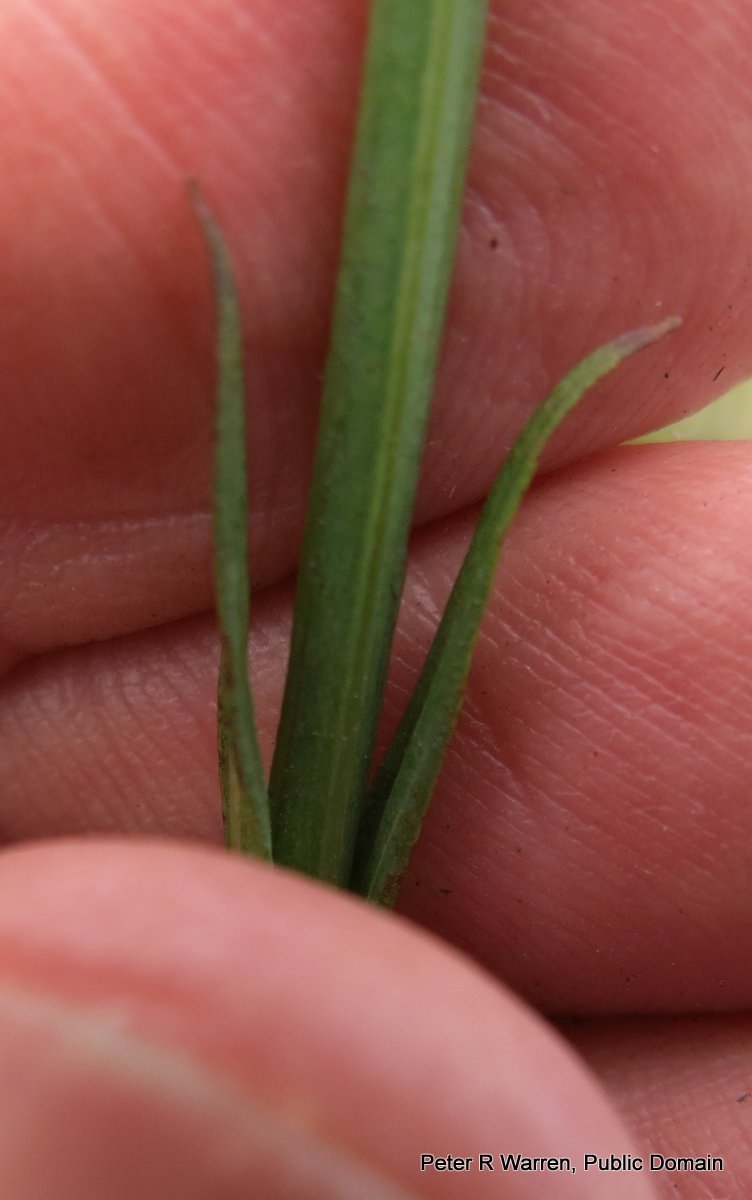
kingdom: Plantae
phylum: Tracheophyta
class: Magnoliopsida
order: Malpighiales
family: Hypericaceae
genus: Hypericum
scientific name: Hypericum lalandii
